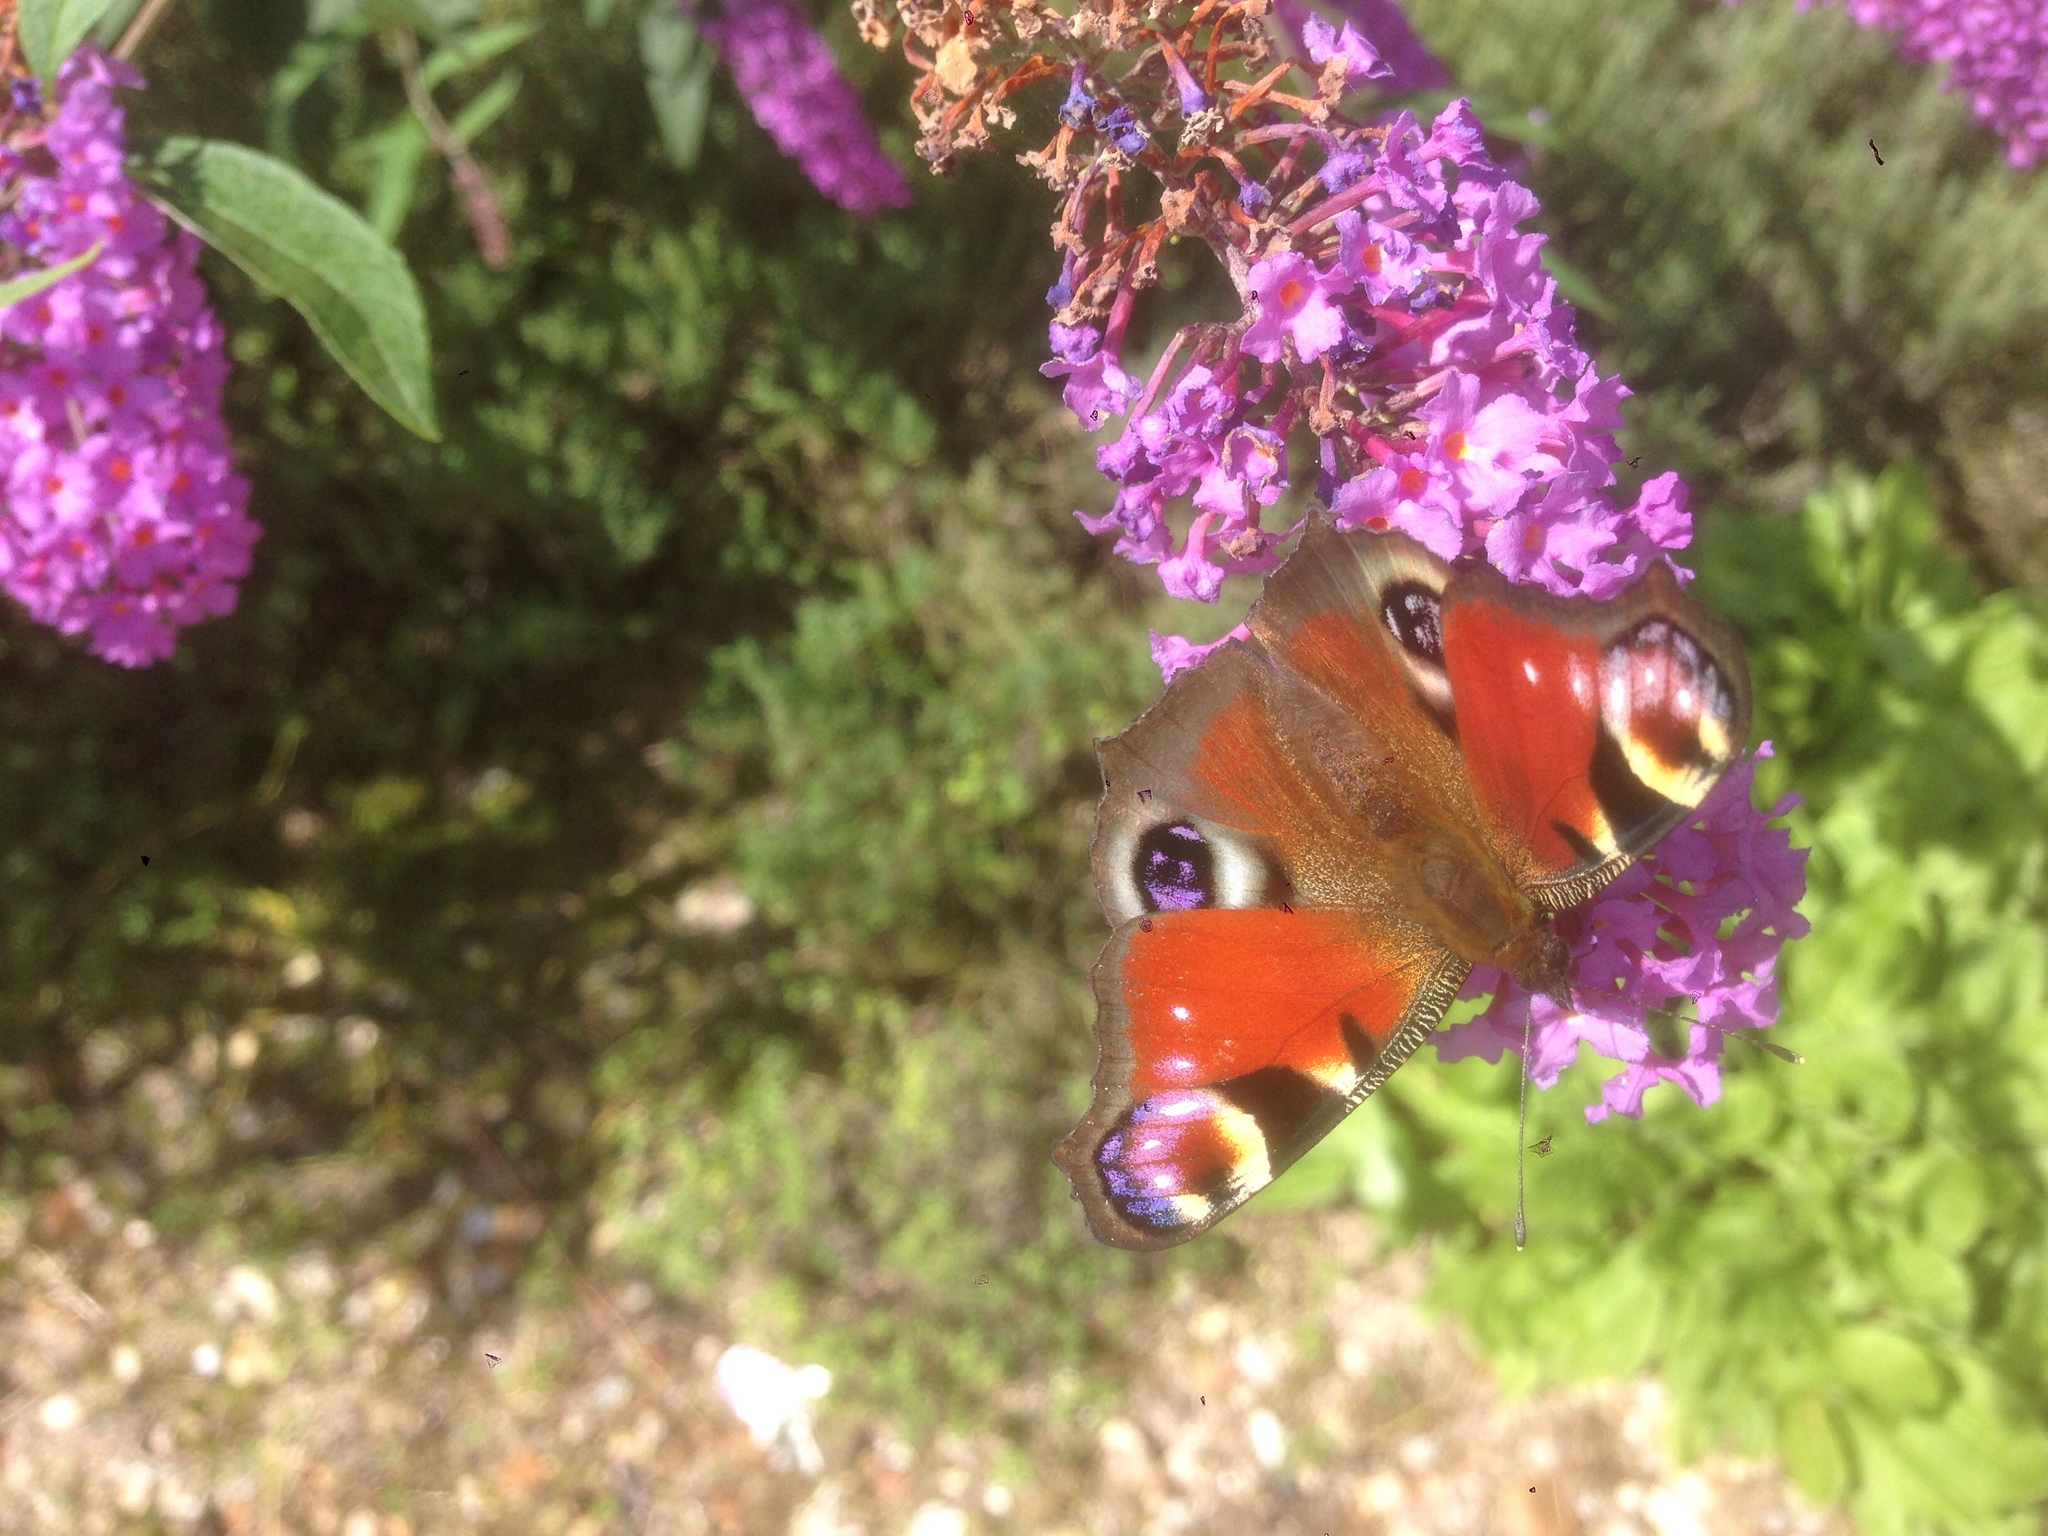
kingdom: Animalia
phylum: Arthropoda
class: Insecta
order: Lepidoptera
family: Nymphalidae
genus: Aglais
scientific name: Aglais io
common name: Peacock
